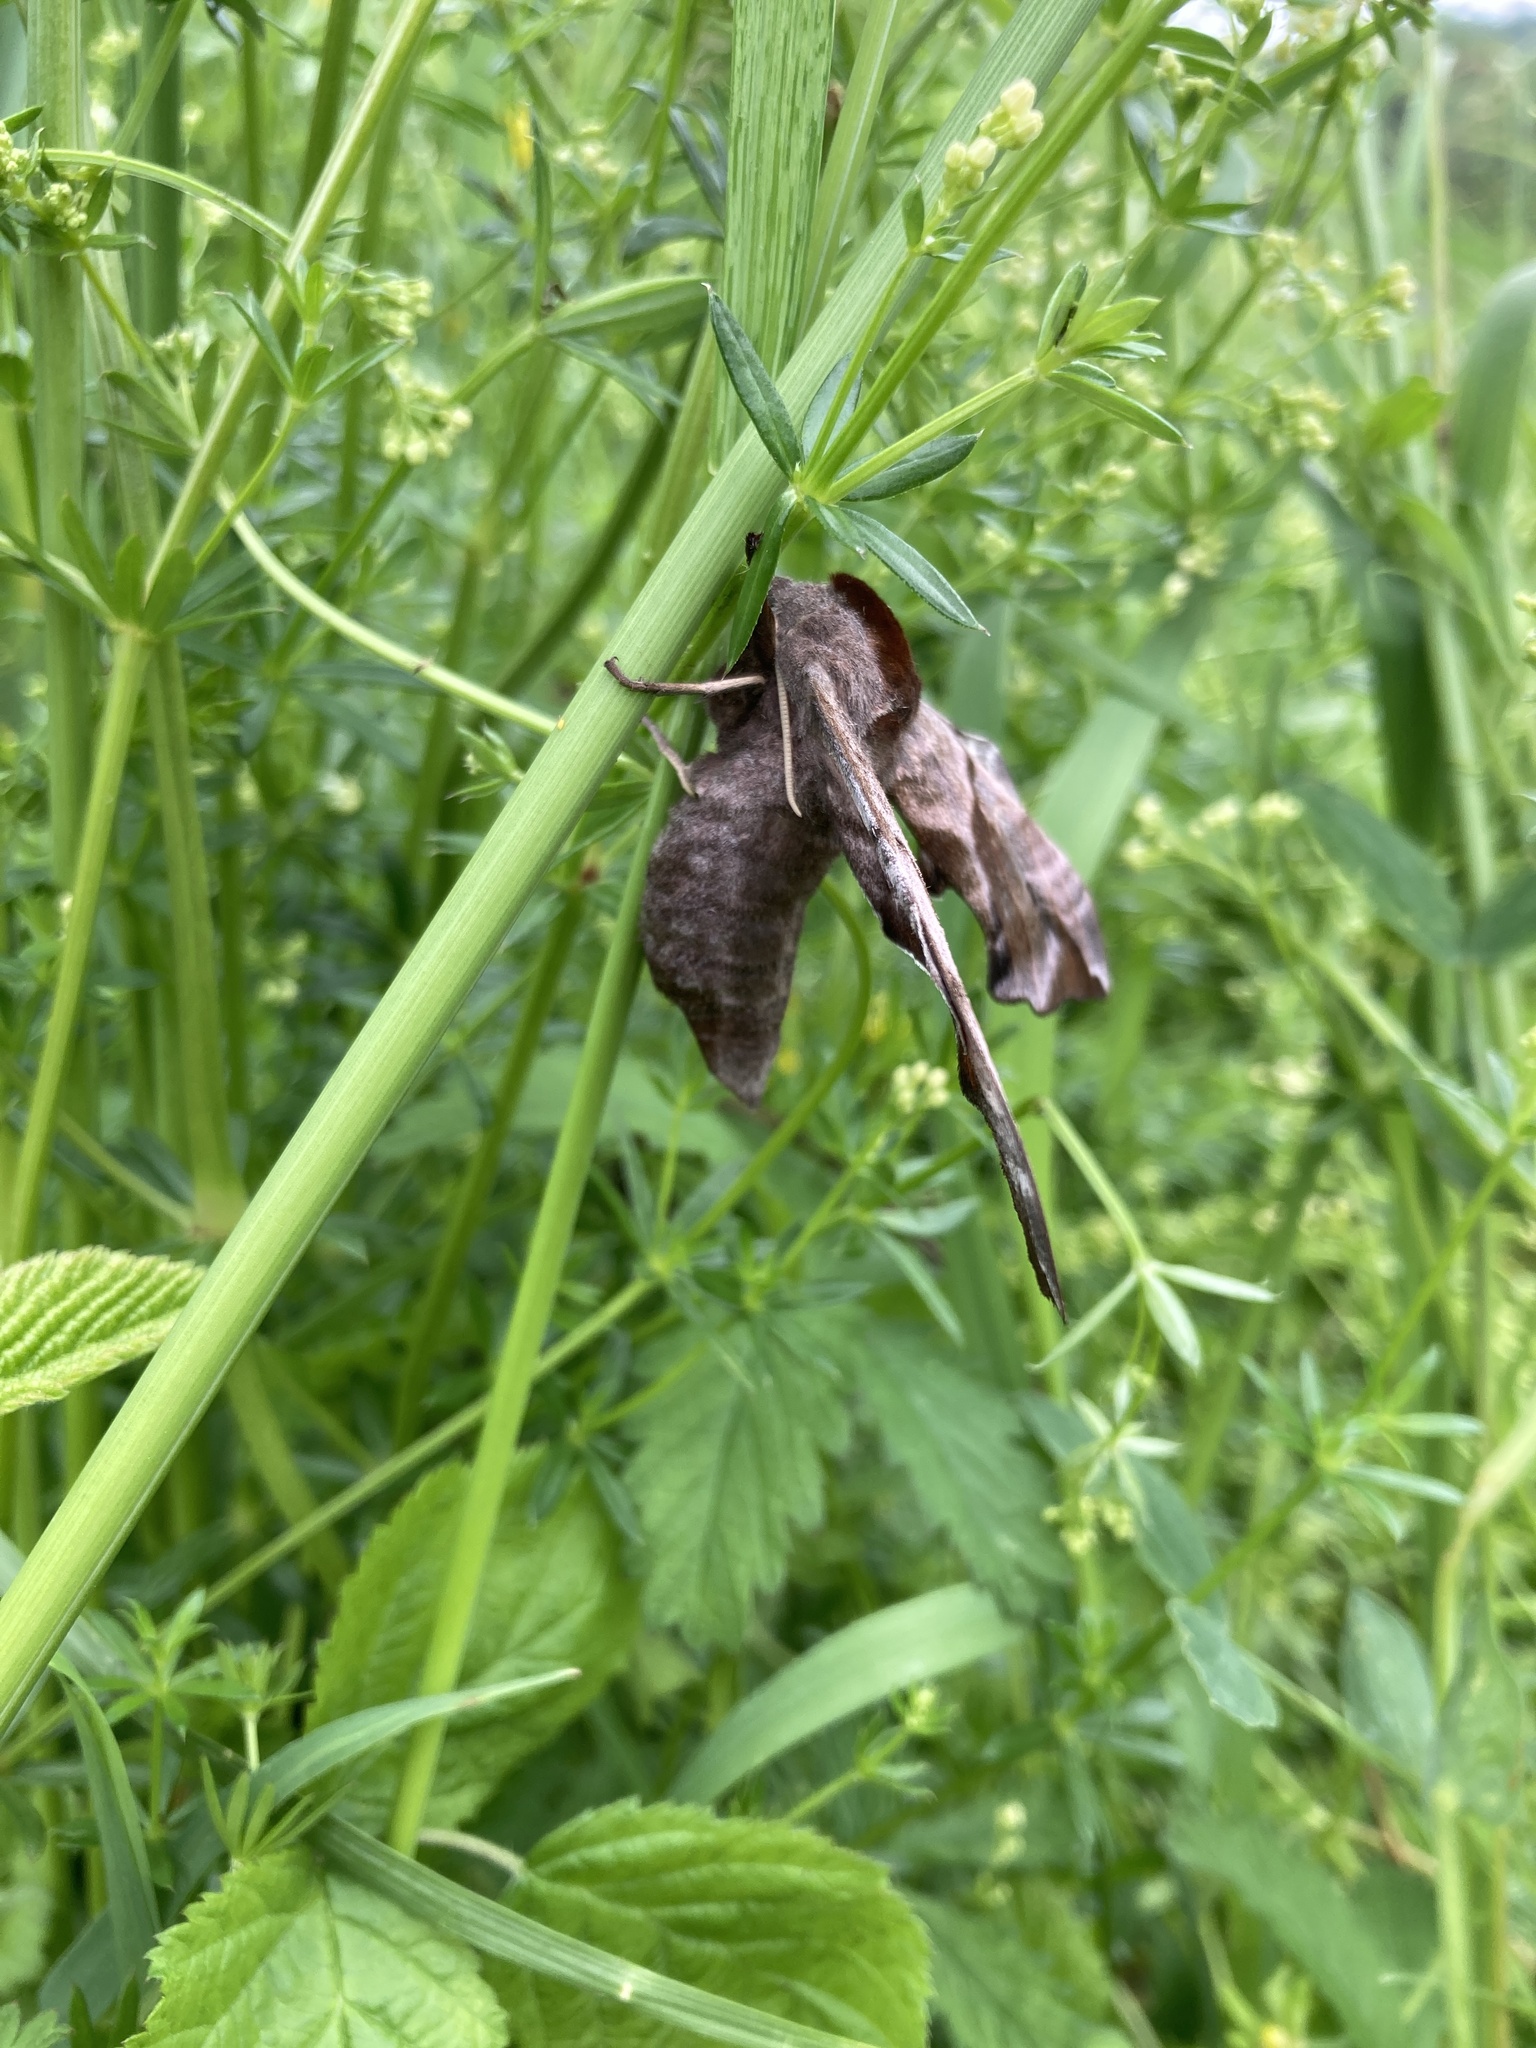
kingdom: Animalia
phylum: Arthropoda
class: Insecta
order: Lepidoptera
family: Sphingidae
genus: Smerinthus
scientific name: Smerinthus ocellata
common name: Eyed hawk-moth
